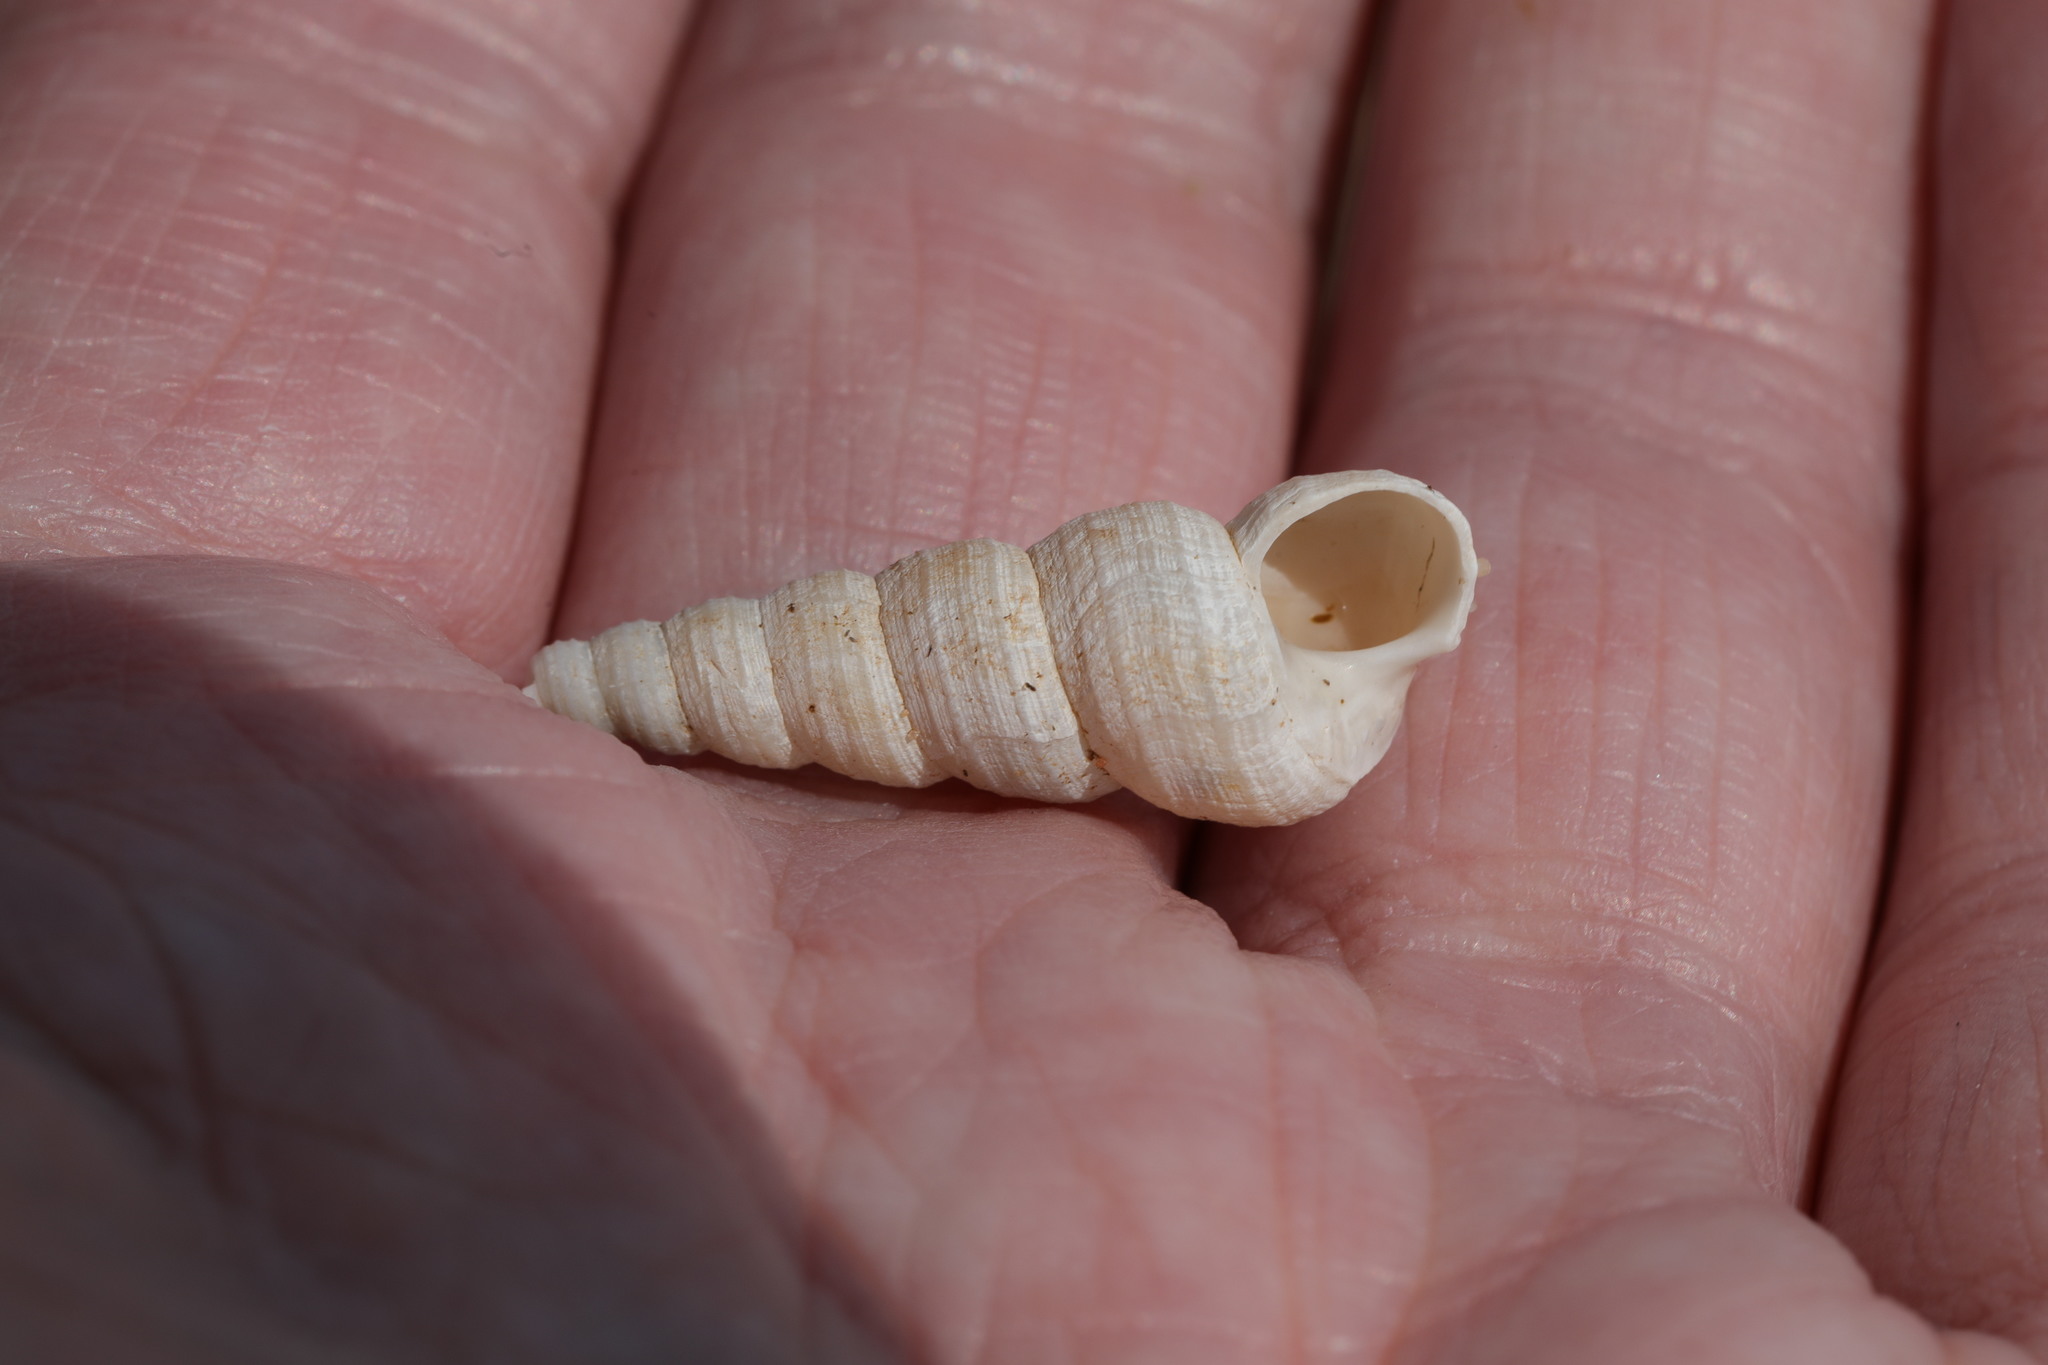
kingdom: Animalia
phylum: Mollusca
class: Gastropoda
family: Turritellidae
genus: Turritellinella
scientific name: Turritellinella tricarinata
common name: Auger shell
